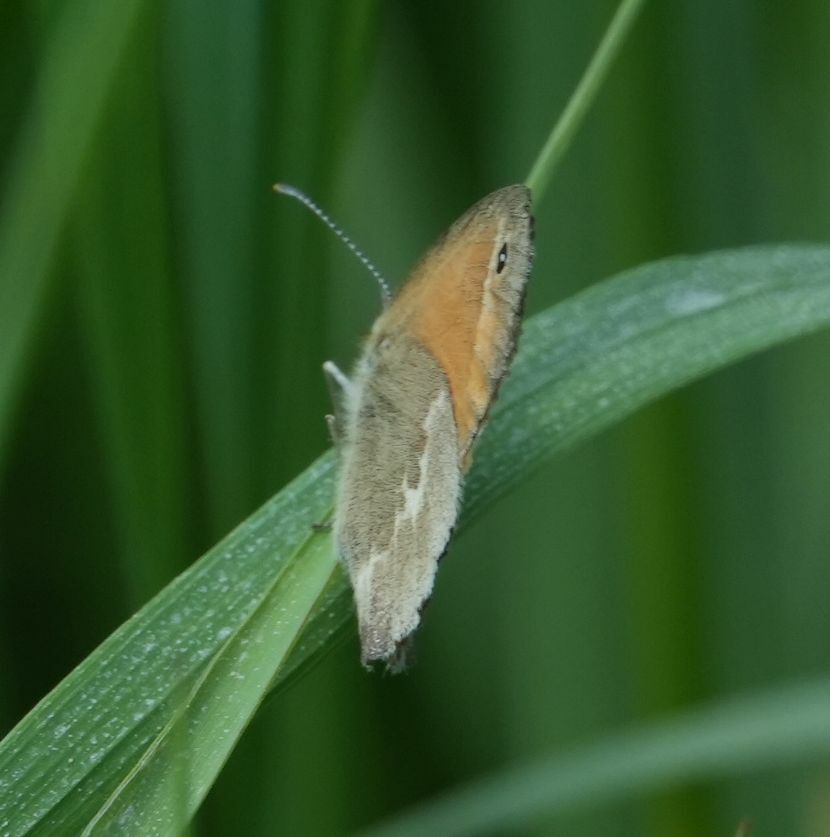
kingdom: Animalia
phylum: Arthropoda
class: Insecta
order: Lepidoptera
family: Nymphalidae
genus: Coenonympha
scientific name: Coenonympha california
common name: Common ringlet
